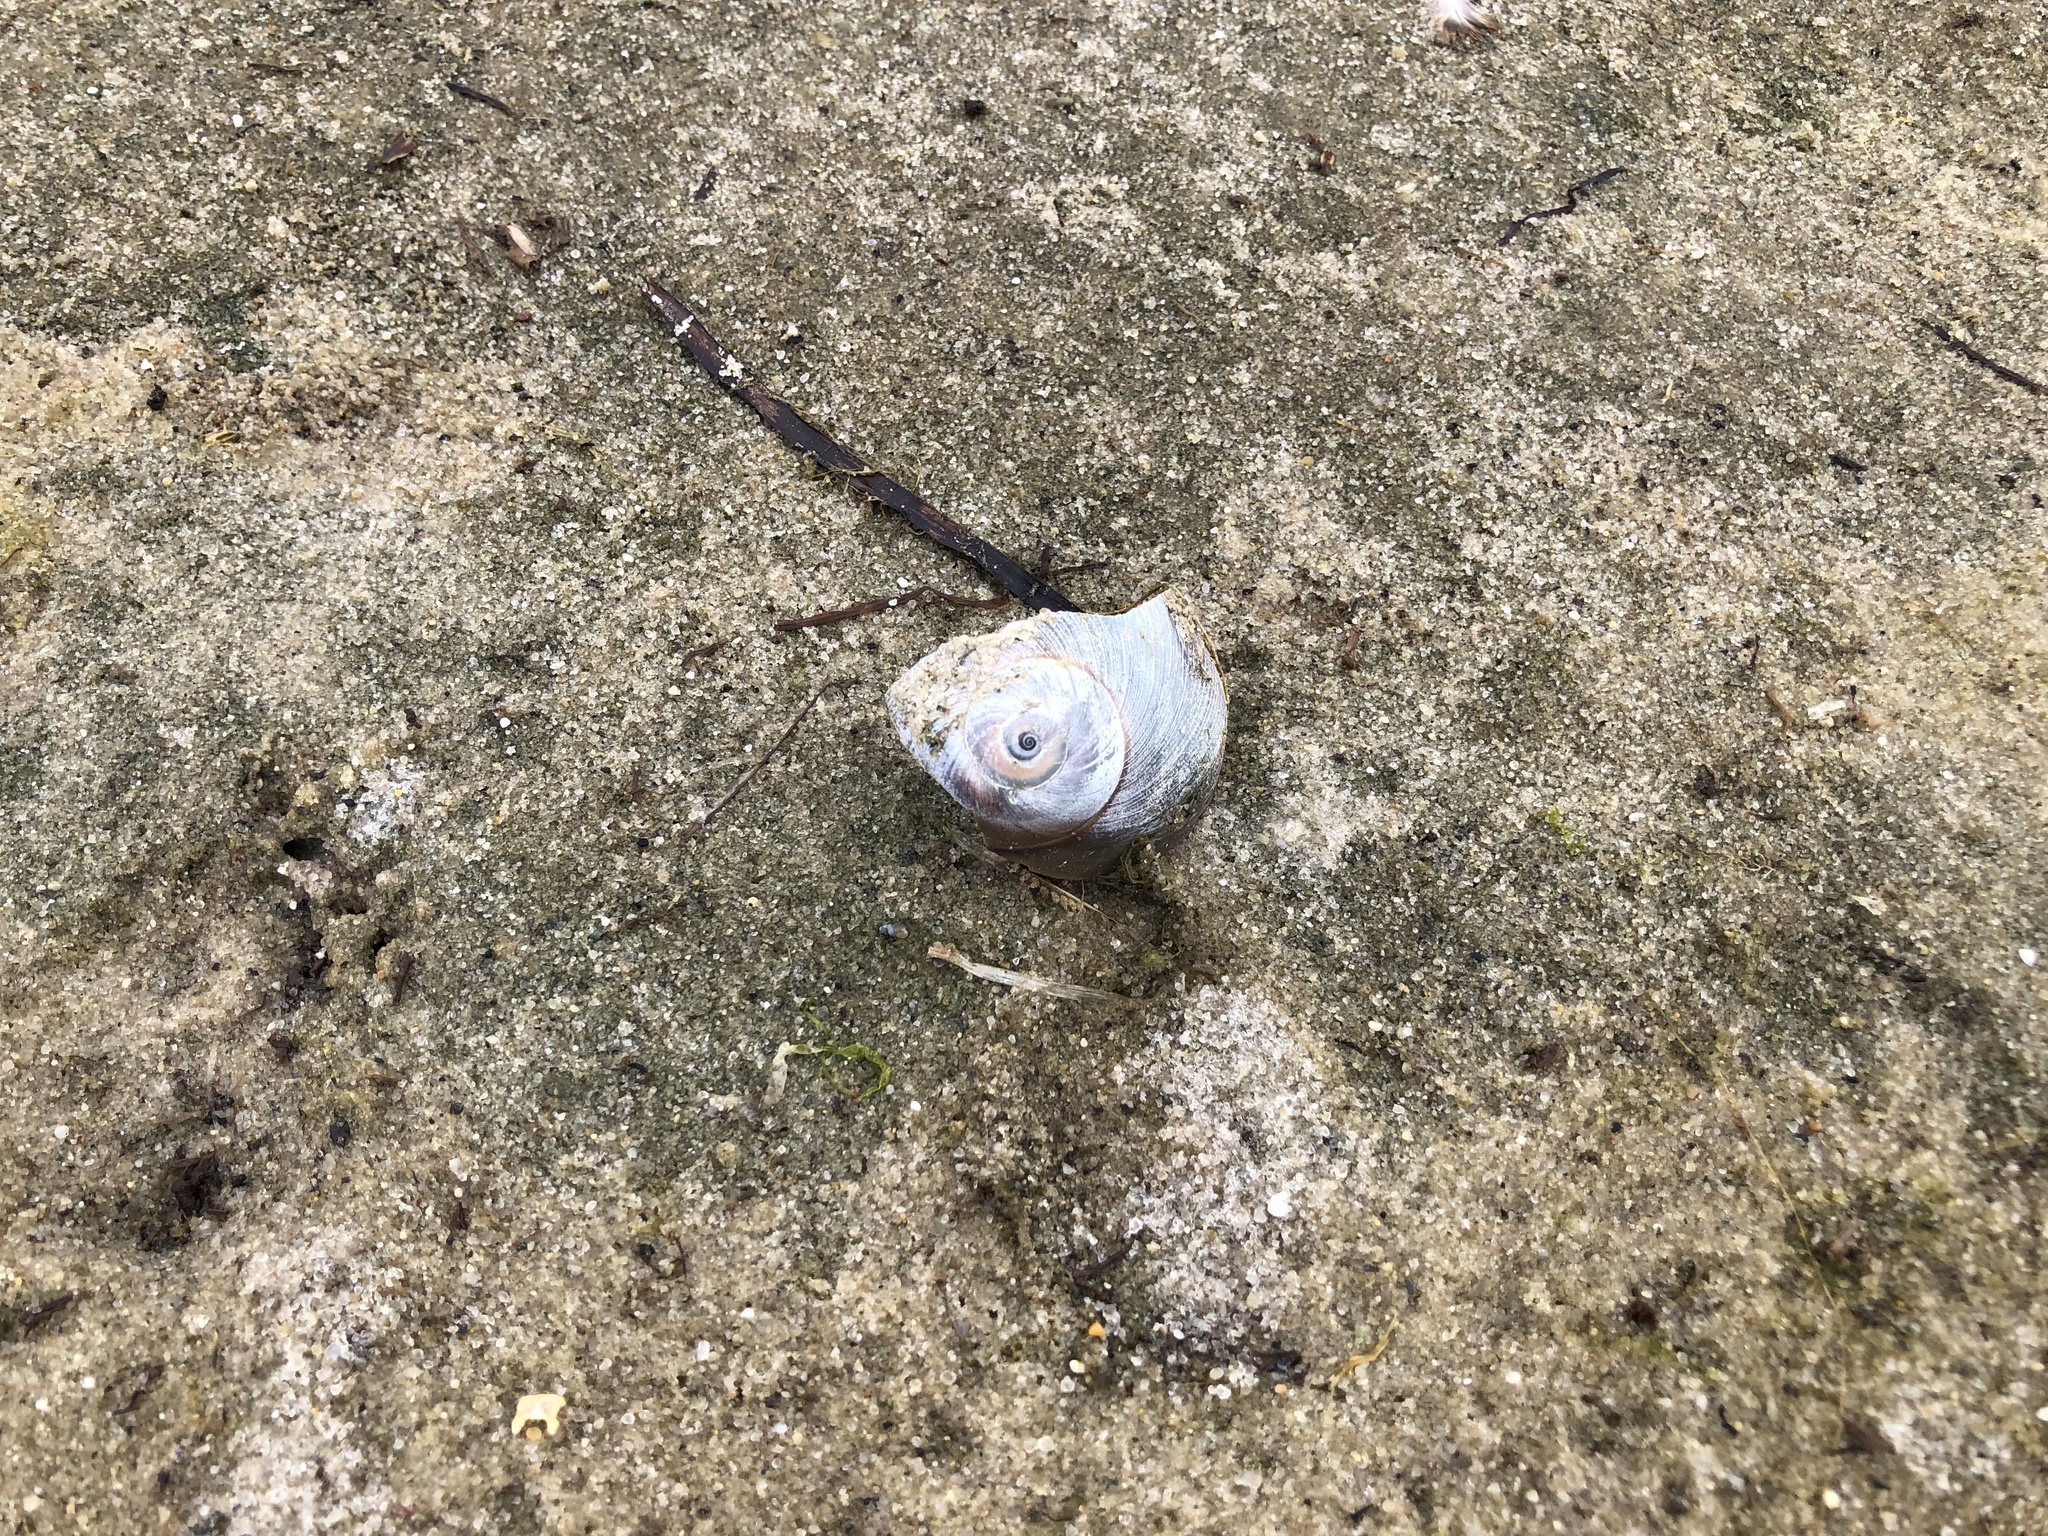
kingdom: Animalia
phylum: Mollusca
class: Gastropoda
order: Littorinimorpha
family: Naticidae
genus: Neverita
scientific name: Neverita duplicata
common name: Lobed moonsnail
